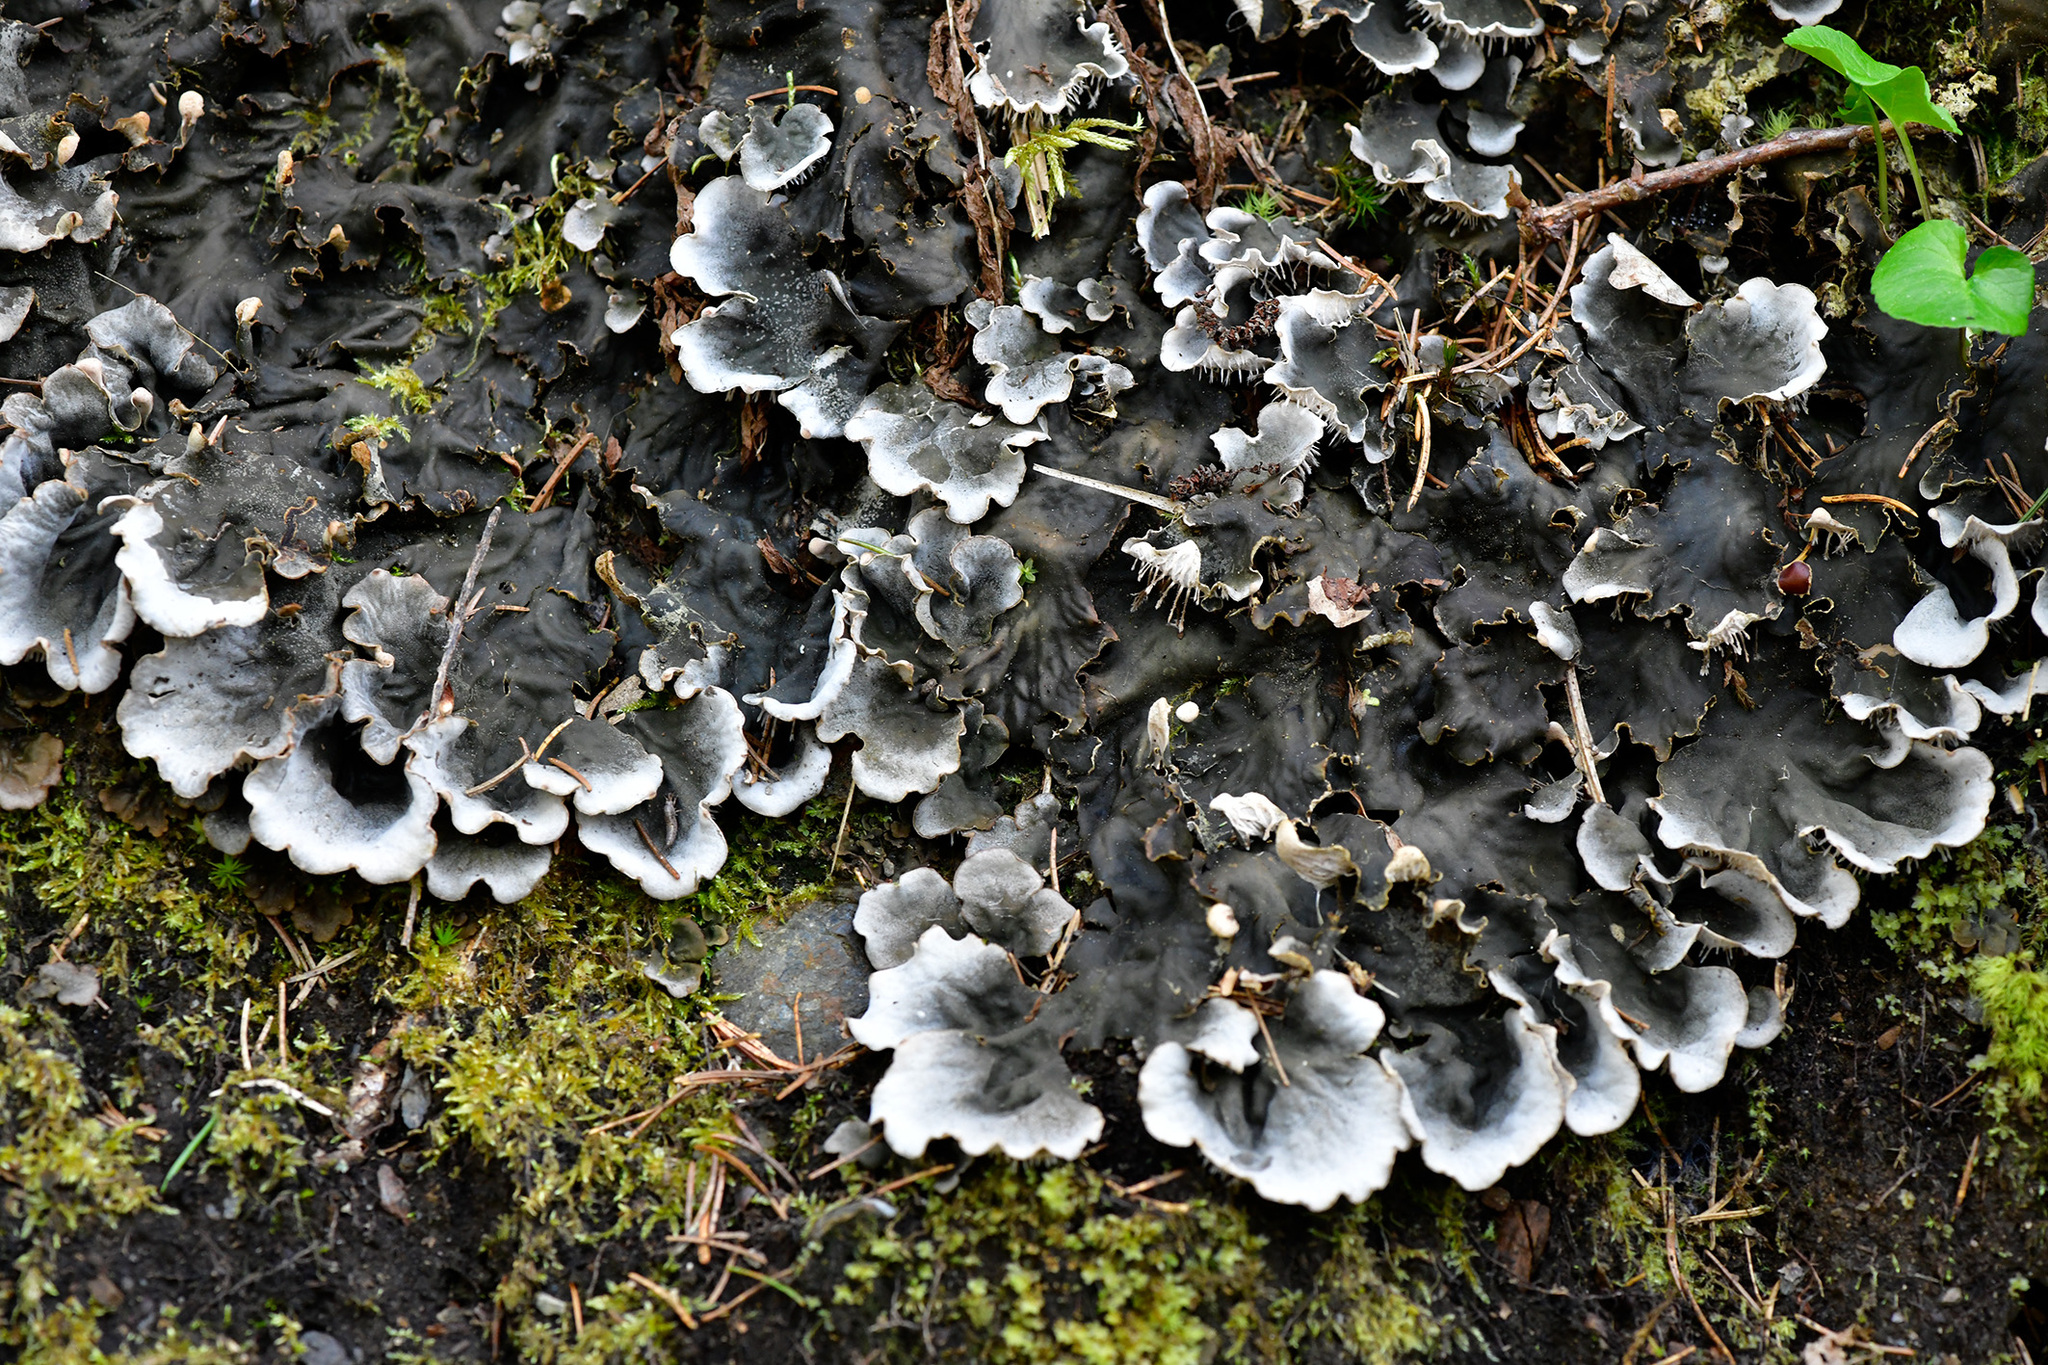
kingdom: Fungi
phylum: Ascomycota
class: Lecanoromycetes
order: Peltigerales
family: Peltigeraceae
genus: Peltigera
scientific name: Peltigera praetextata
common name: Scaly dog-lichen
